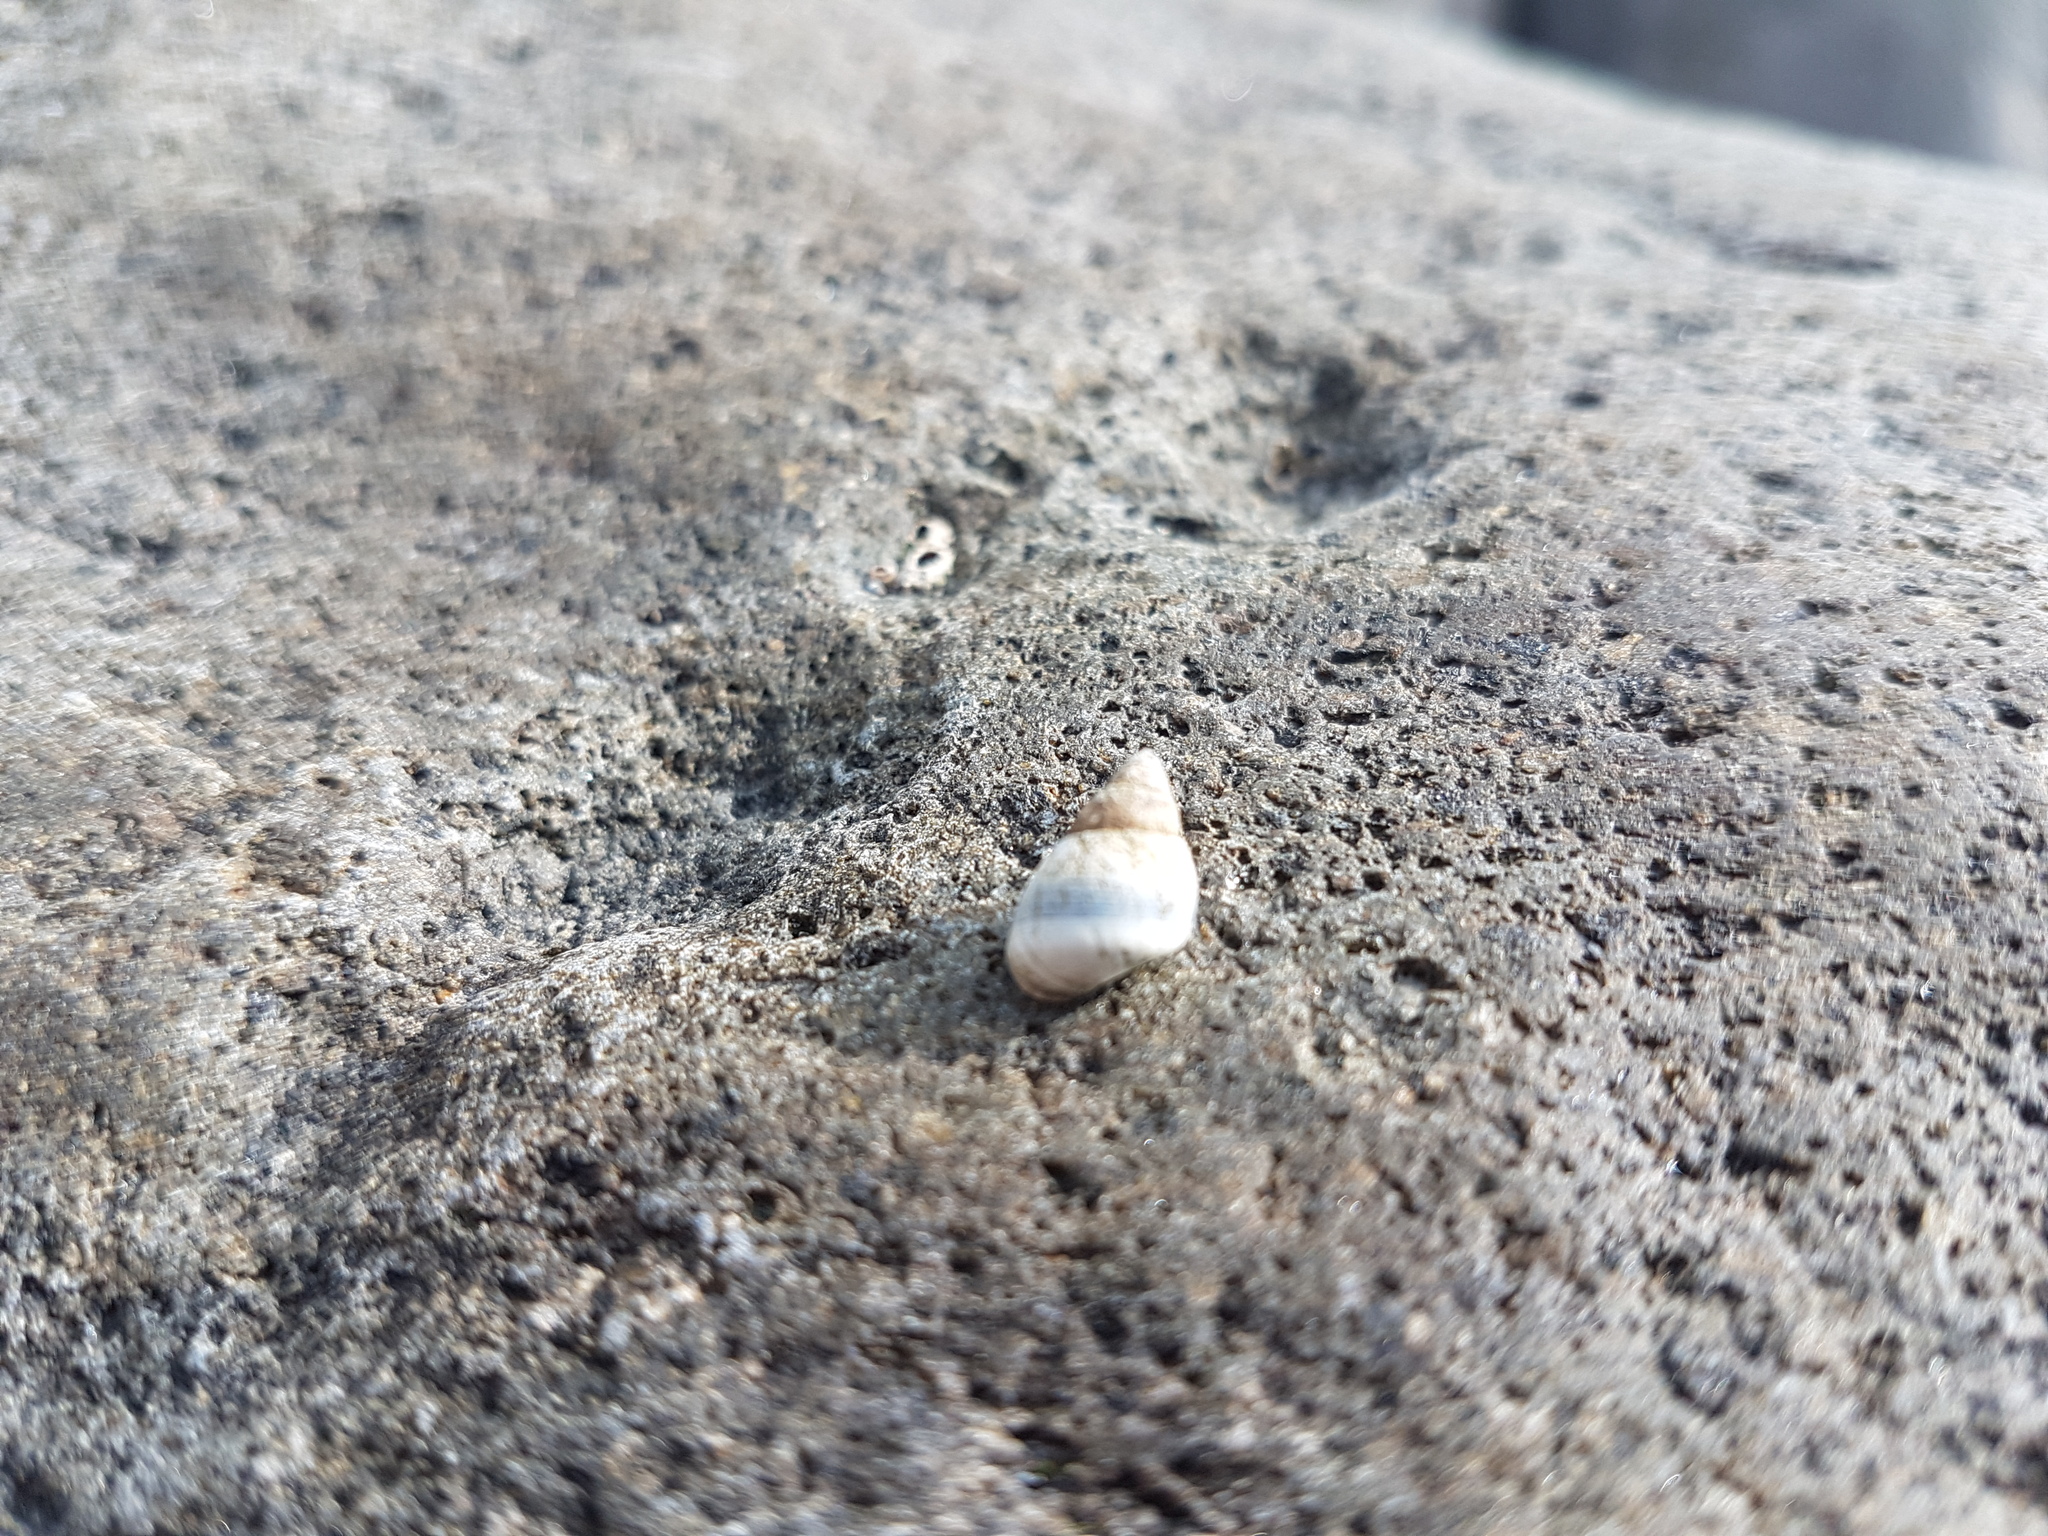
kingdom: Animalia
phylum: Mollusca
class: Gastropoda
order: Littorinimorpha
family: Littorinidae
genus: Austrolittorina
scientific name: Austrolittorina antipodum
